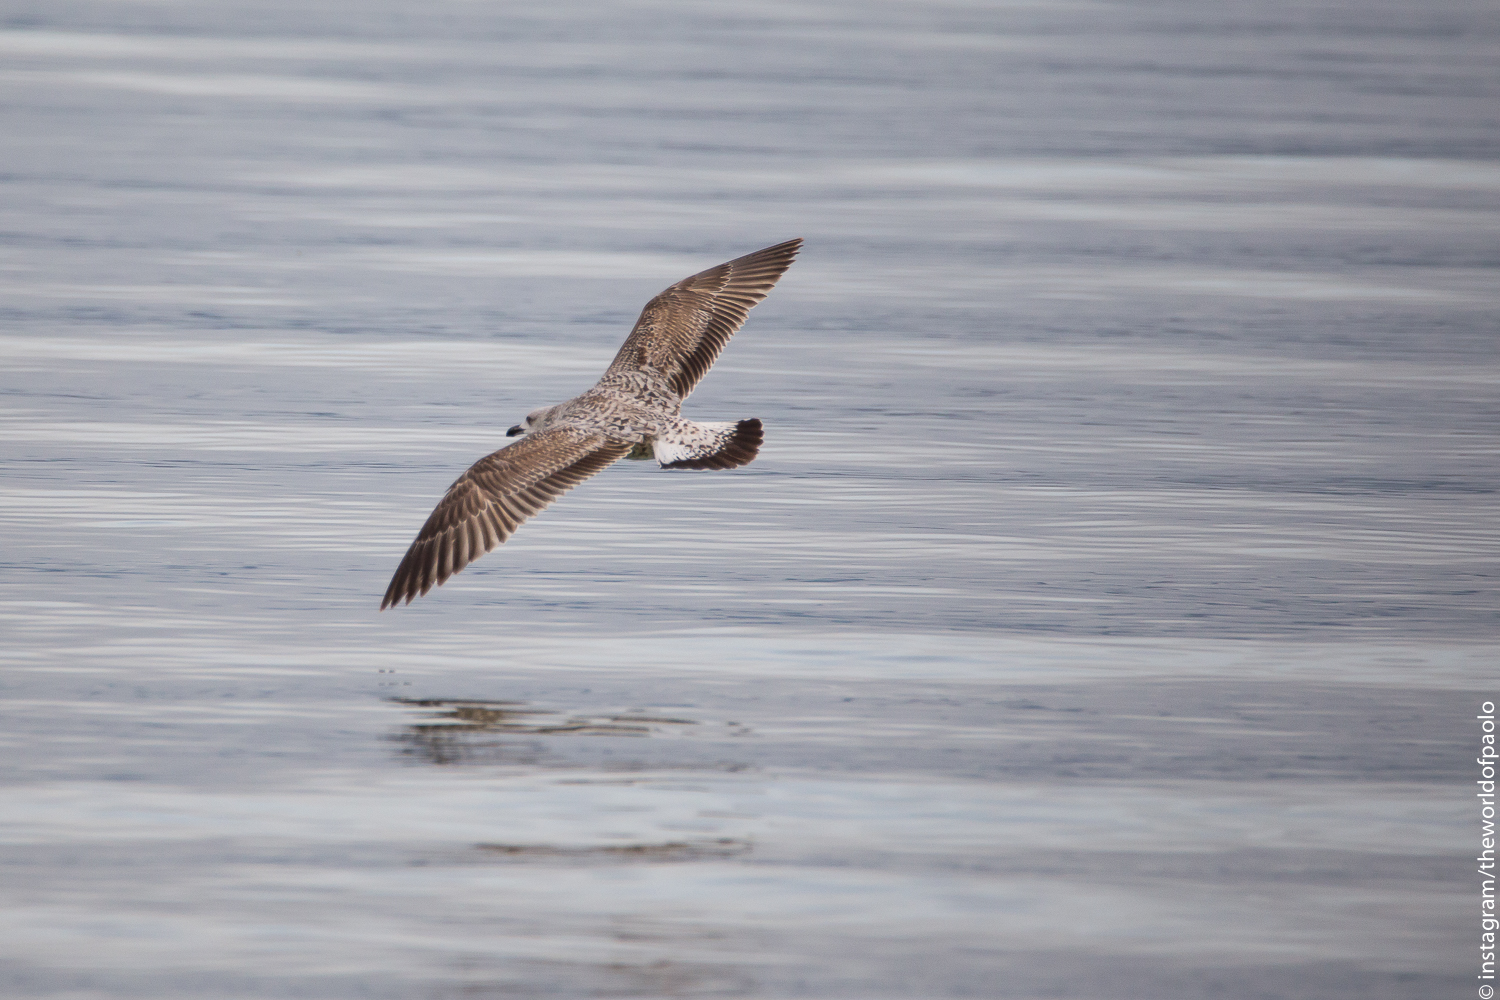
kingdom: Animalia
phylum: Chordata
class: Aves
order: Charadriiformes
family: Laridae
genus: Larus
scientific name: Larus michahellis
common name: Yellow-legged gull
